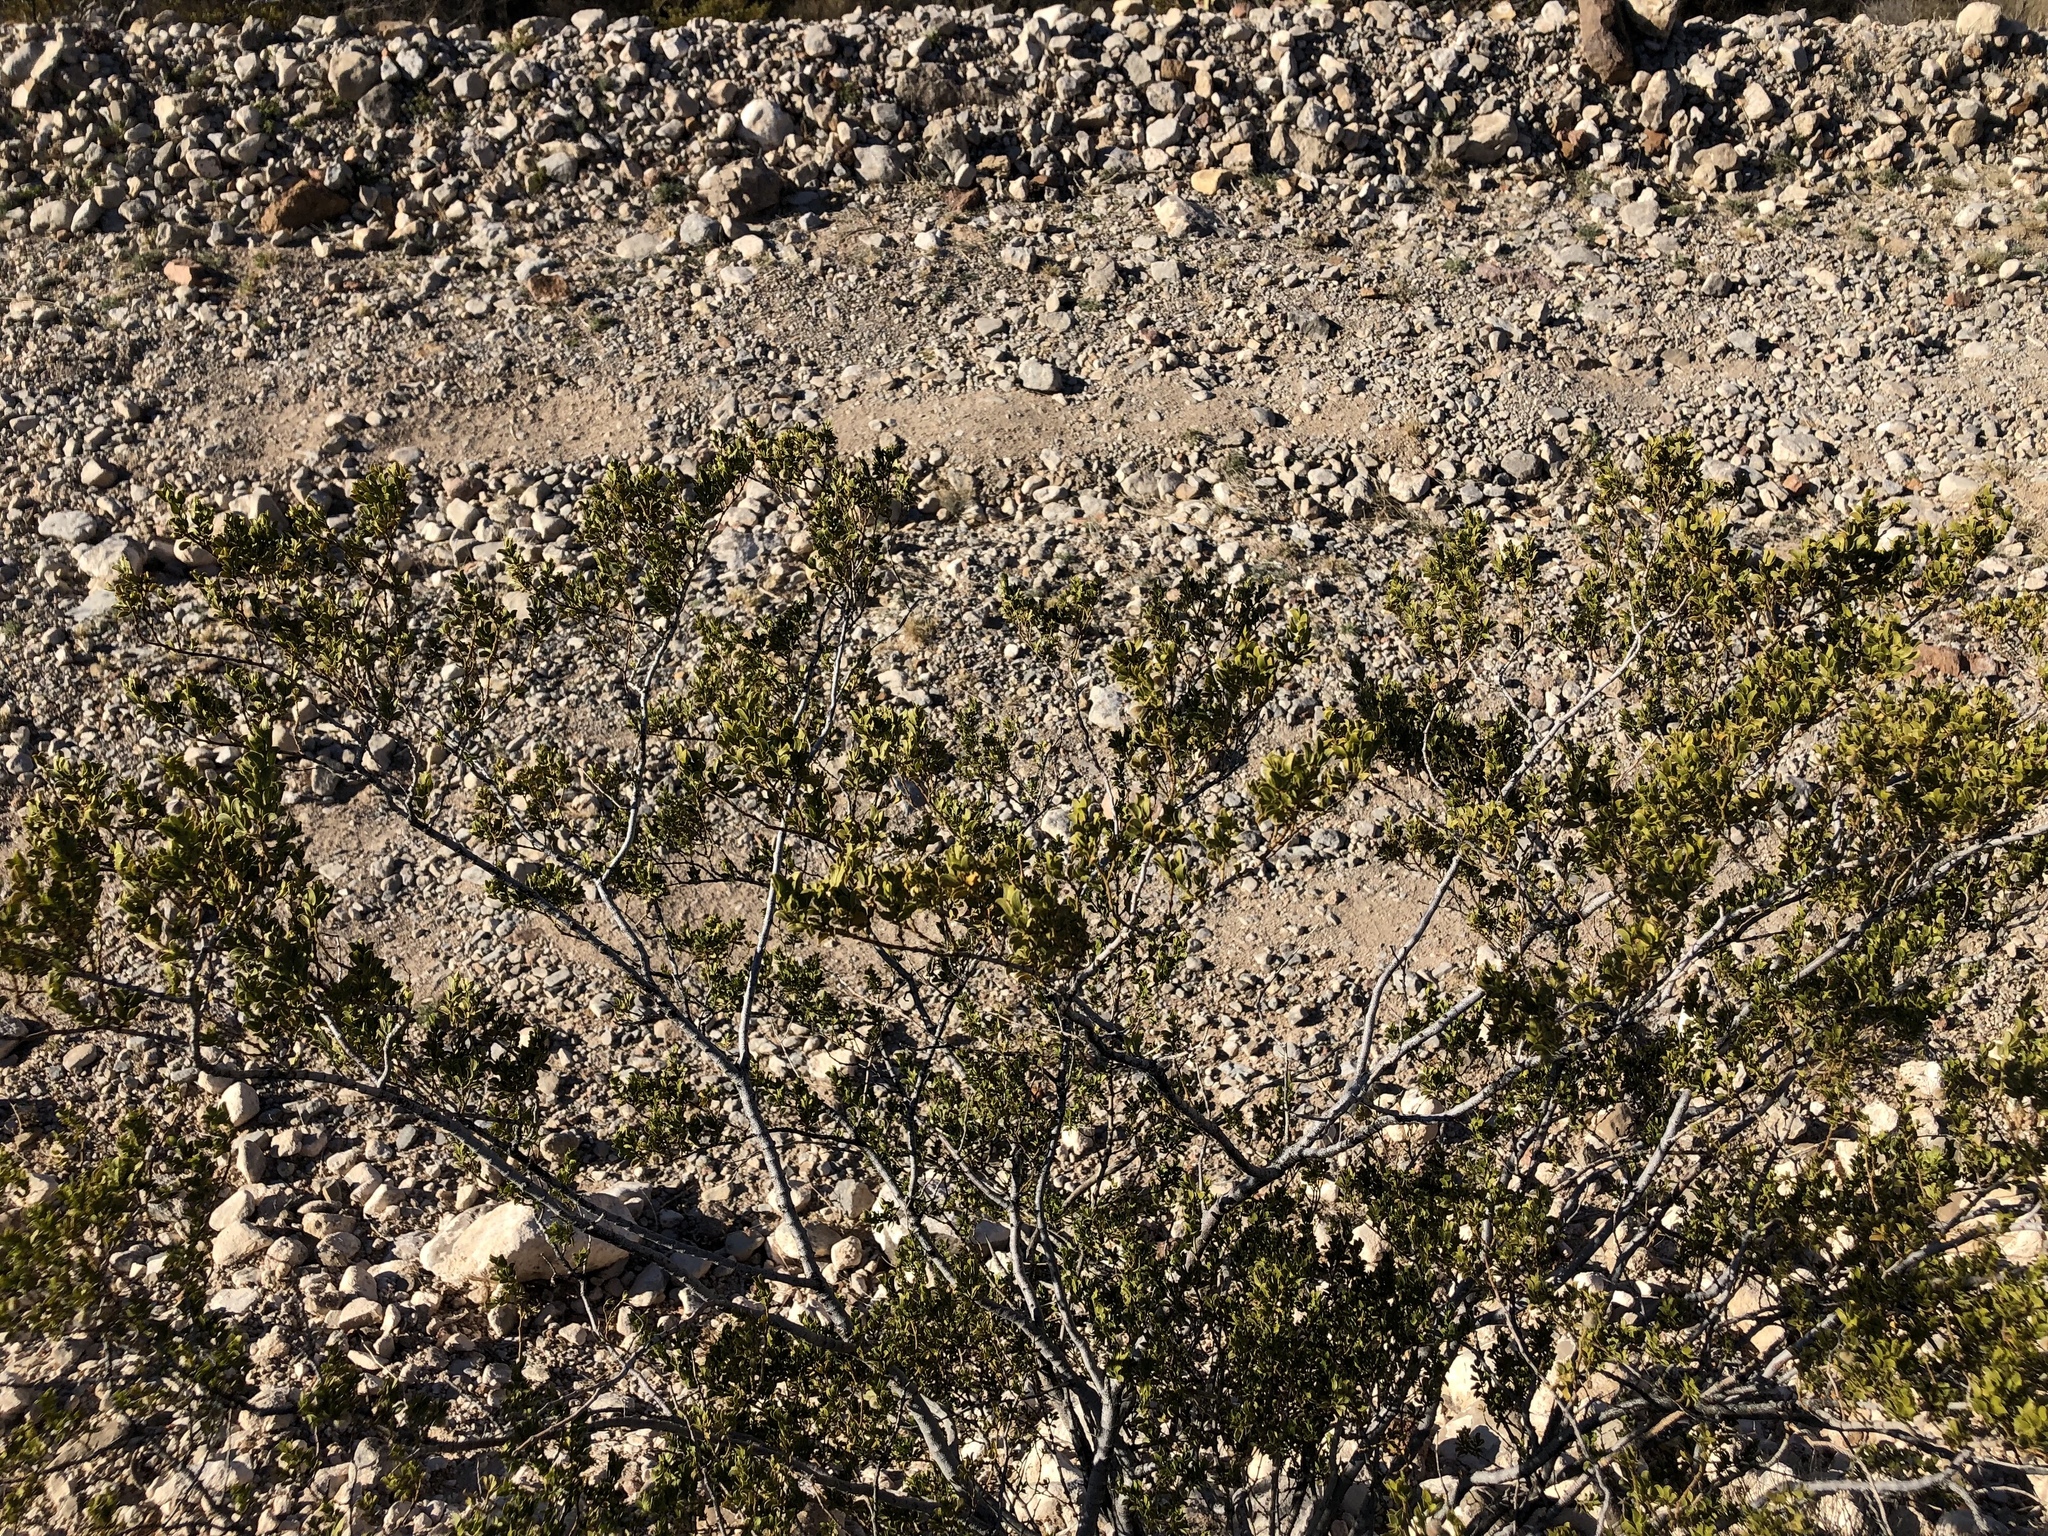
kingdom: Plantae
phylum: Tracheophyta
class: Magnoliopsida
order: Zygophyllales
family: Zygophyllaceae
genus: Larrea
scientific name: Larrea tridentata
